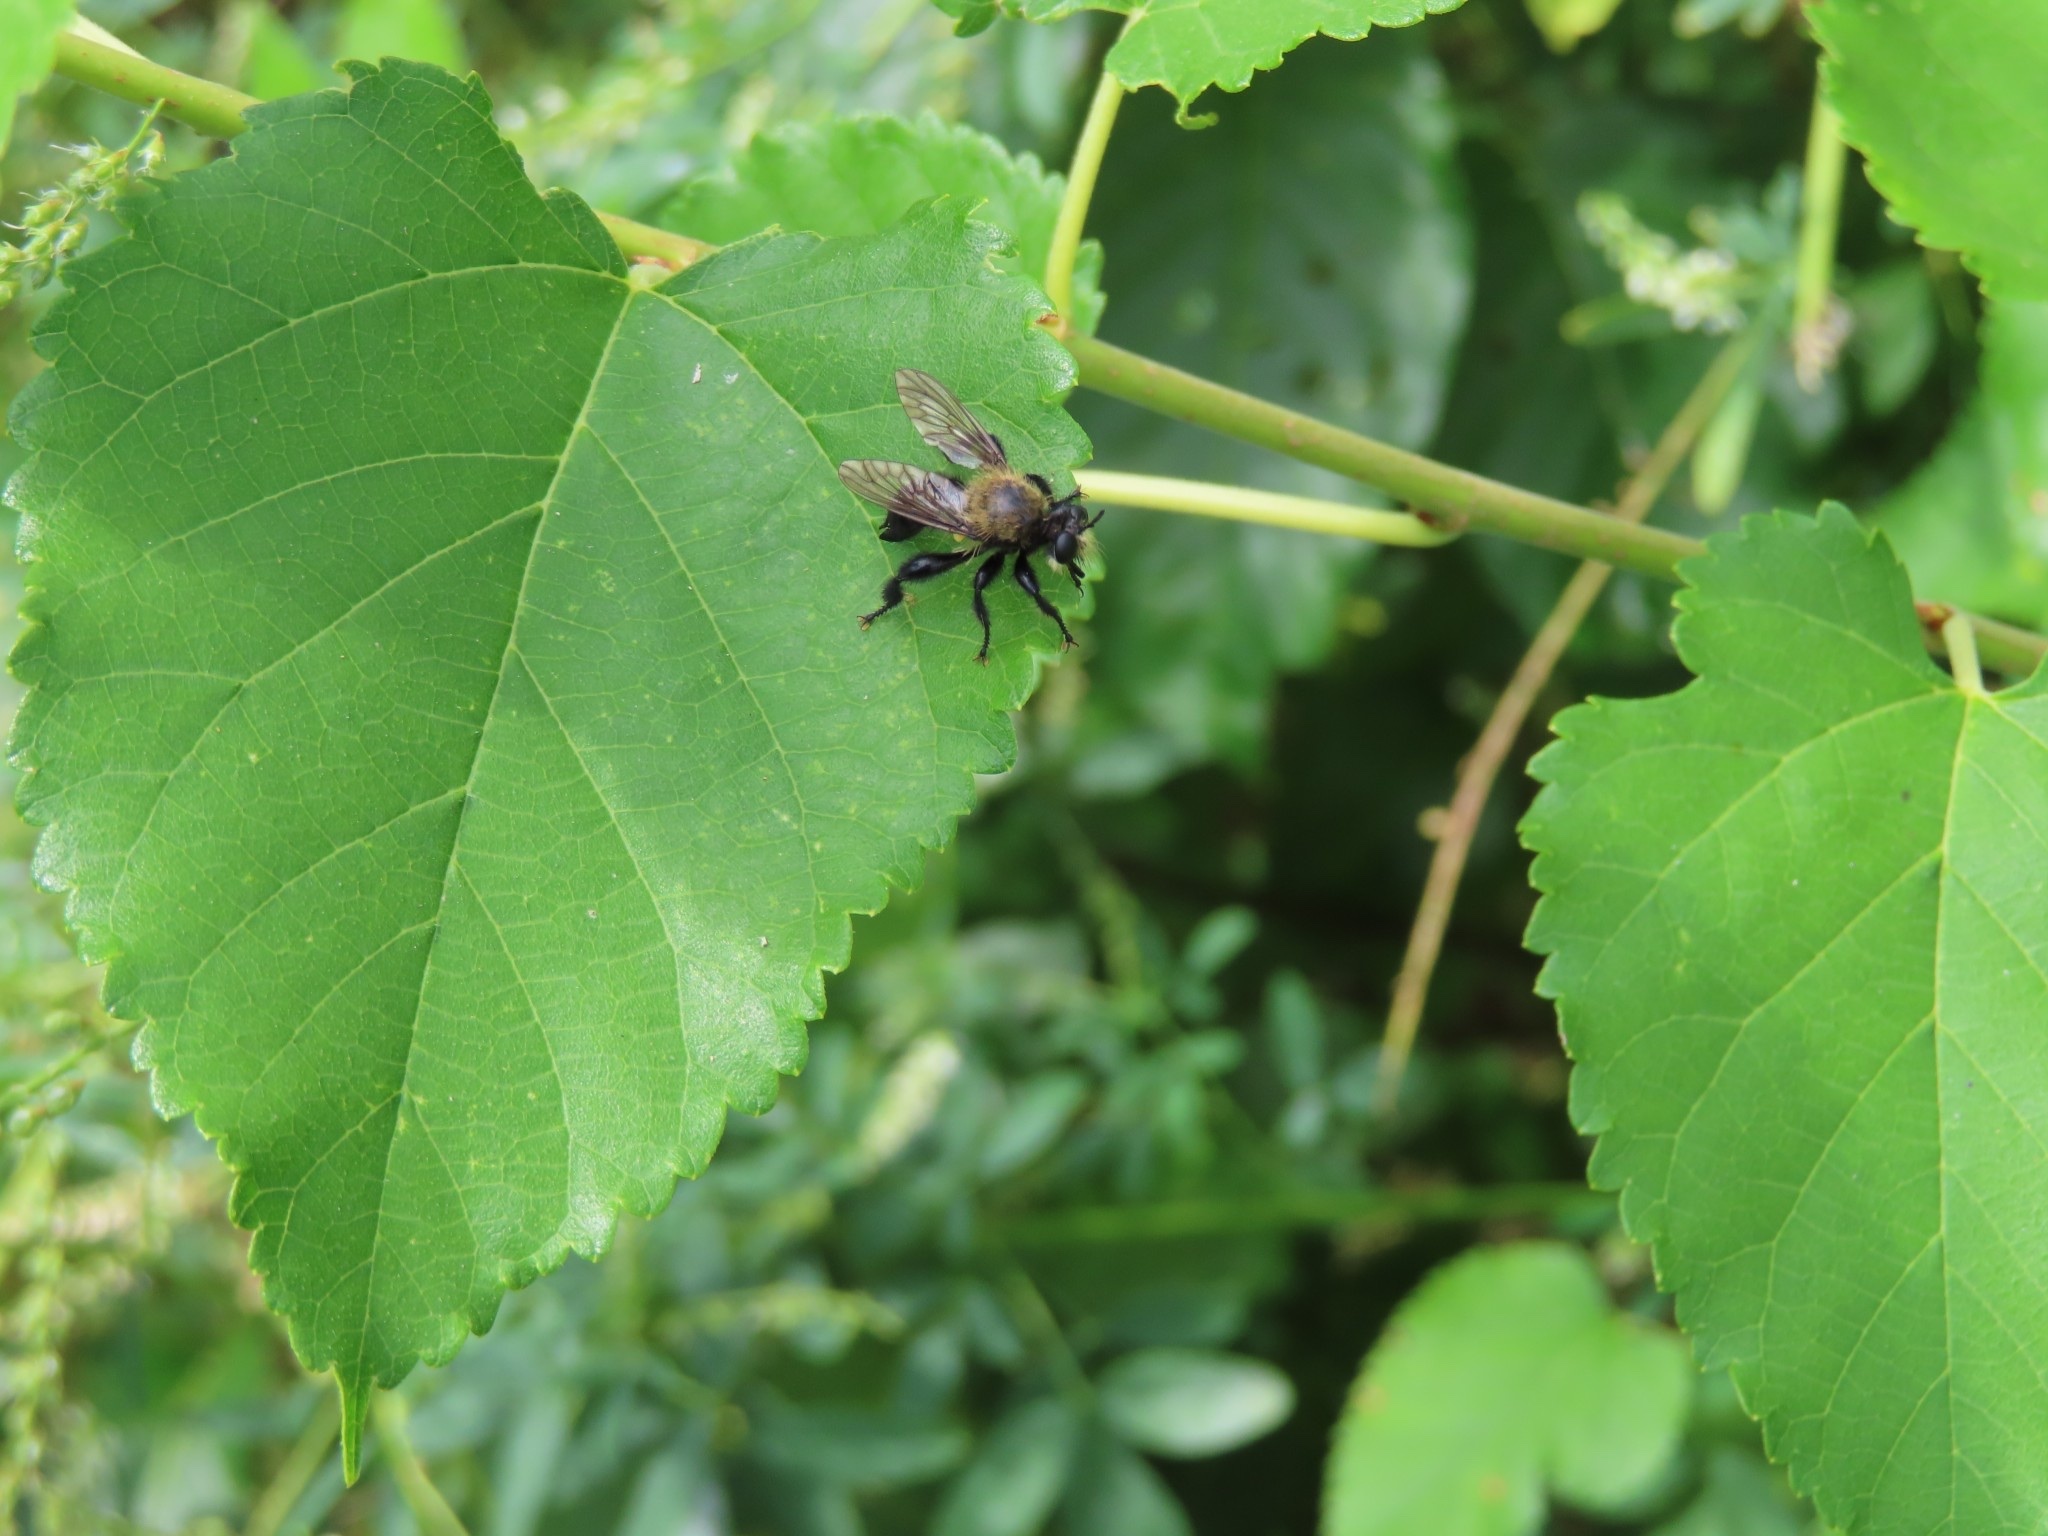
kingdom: Animalia
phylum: Arthropoda
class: Insecta
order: Diptera
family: Asilidae
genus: Laphria
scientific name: Laphria flavicollis
